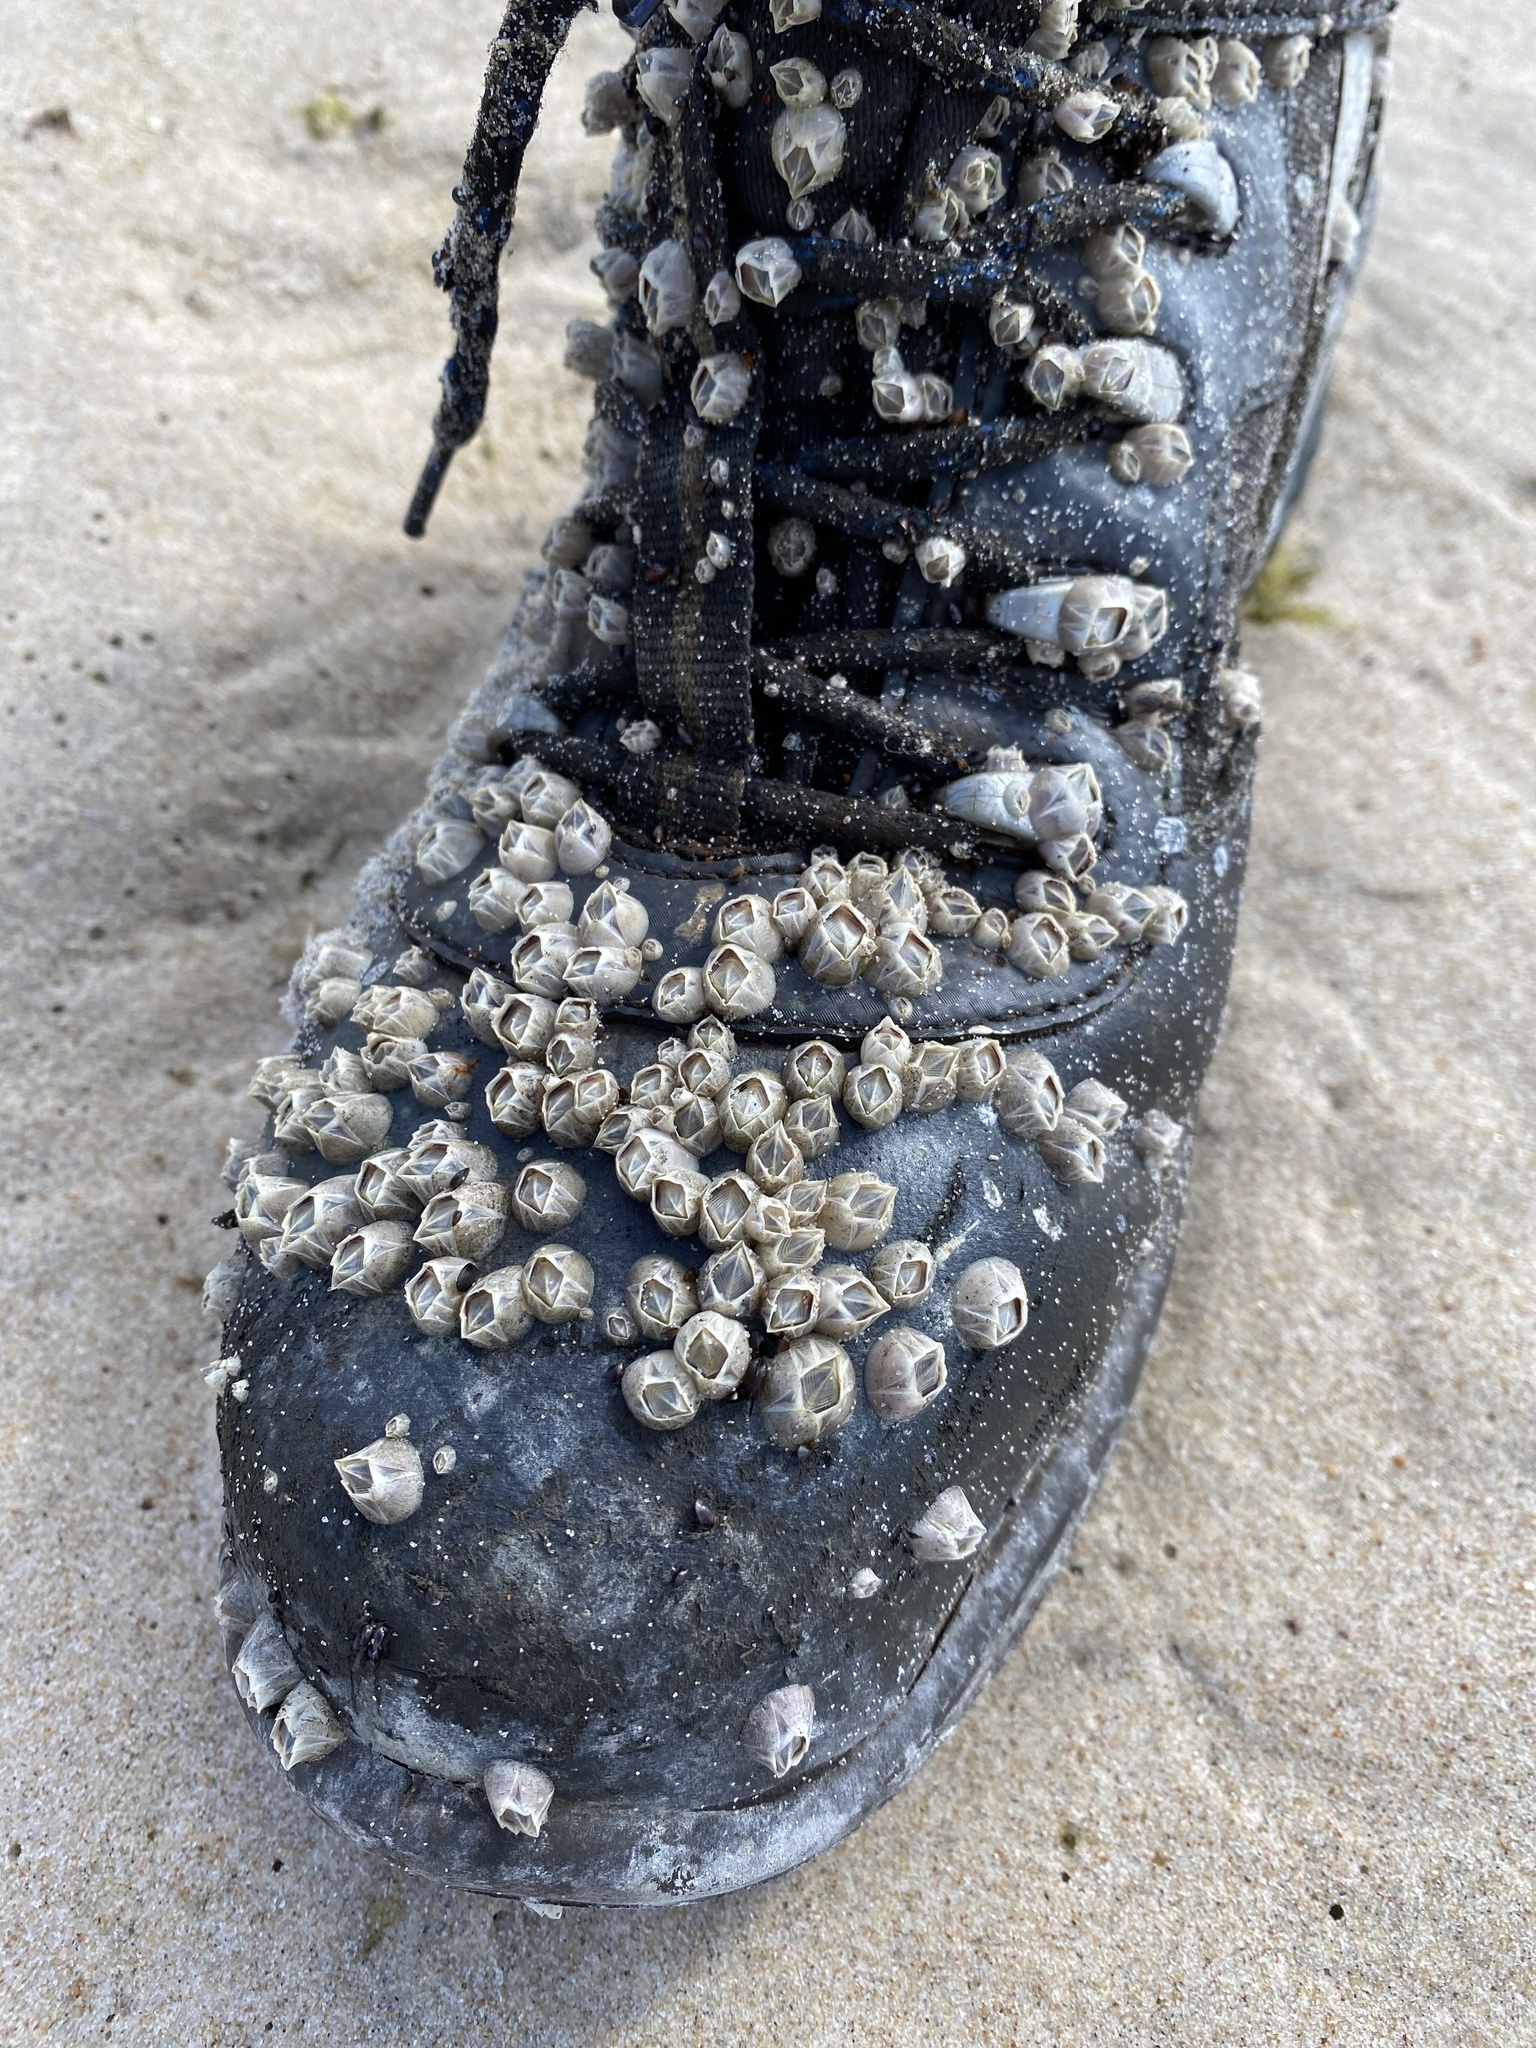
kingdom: Animalia
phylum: Arthropoda
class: Maxillopoda
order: Sessilia
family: Balanidae
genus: Amphibalanus
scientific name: Amphibalanus improvisus
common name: Bay barnacle
